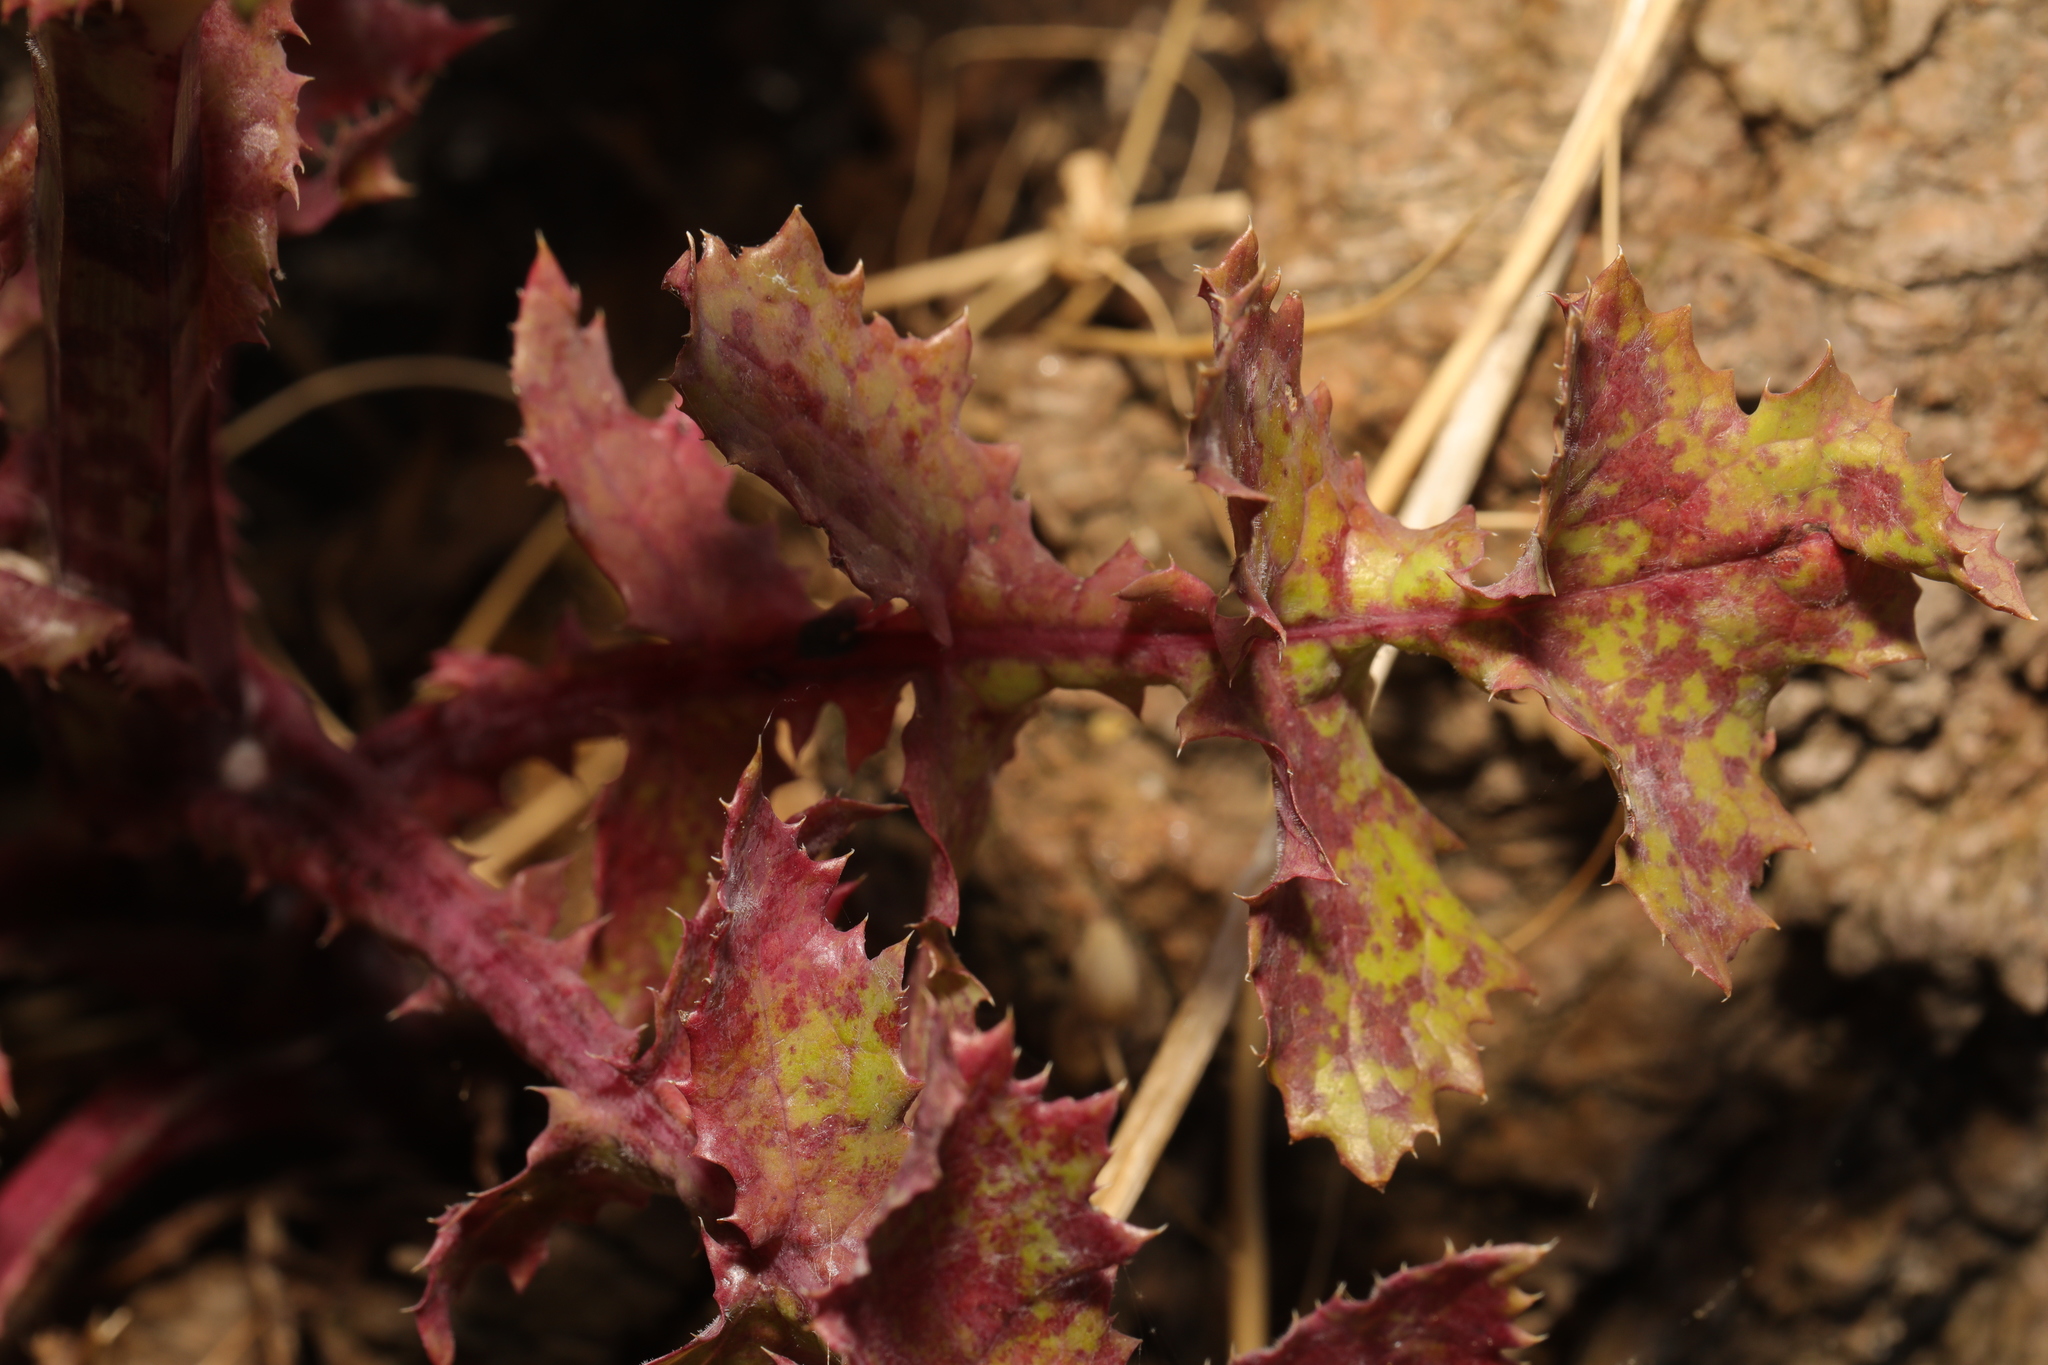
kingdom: Plantae
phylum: Tracheophyta
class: Magnoliopsida
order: Asterales
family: Asteraceae
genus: Sonchus
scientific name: Sonchus oleraceus
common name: Common sowthistle
